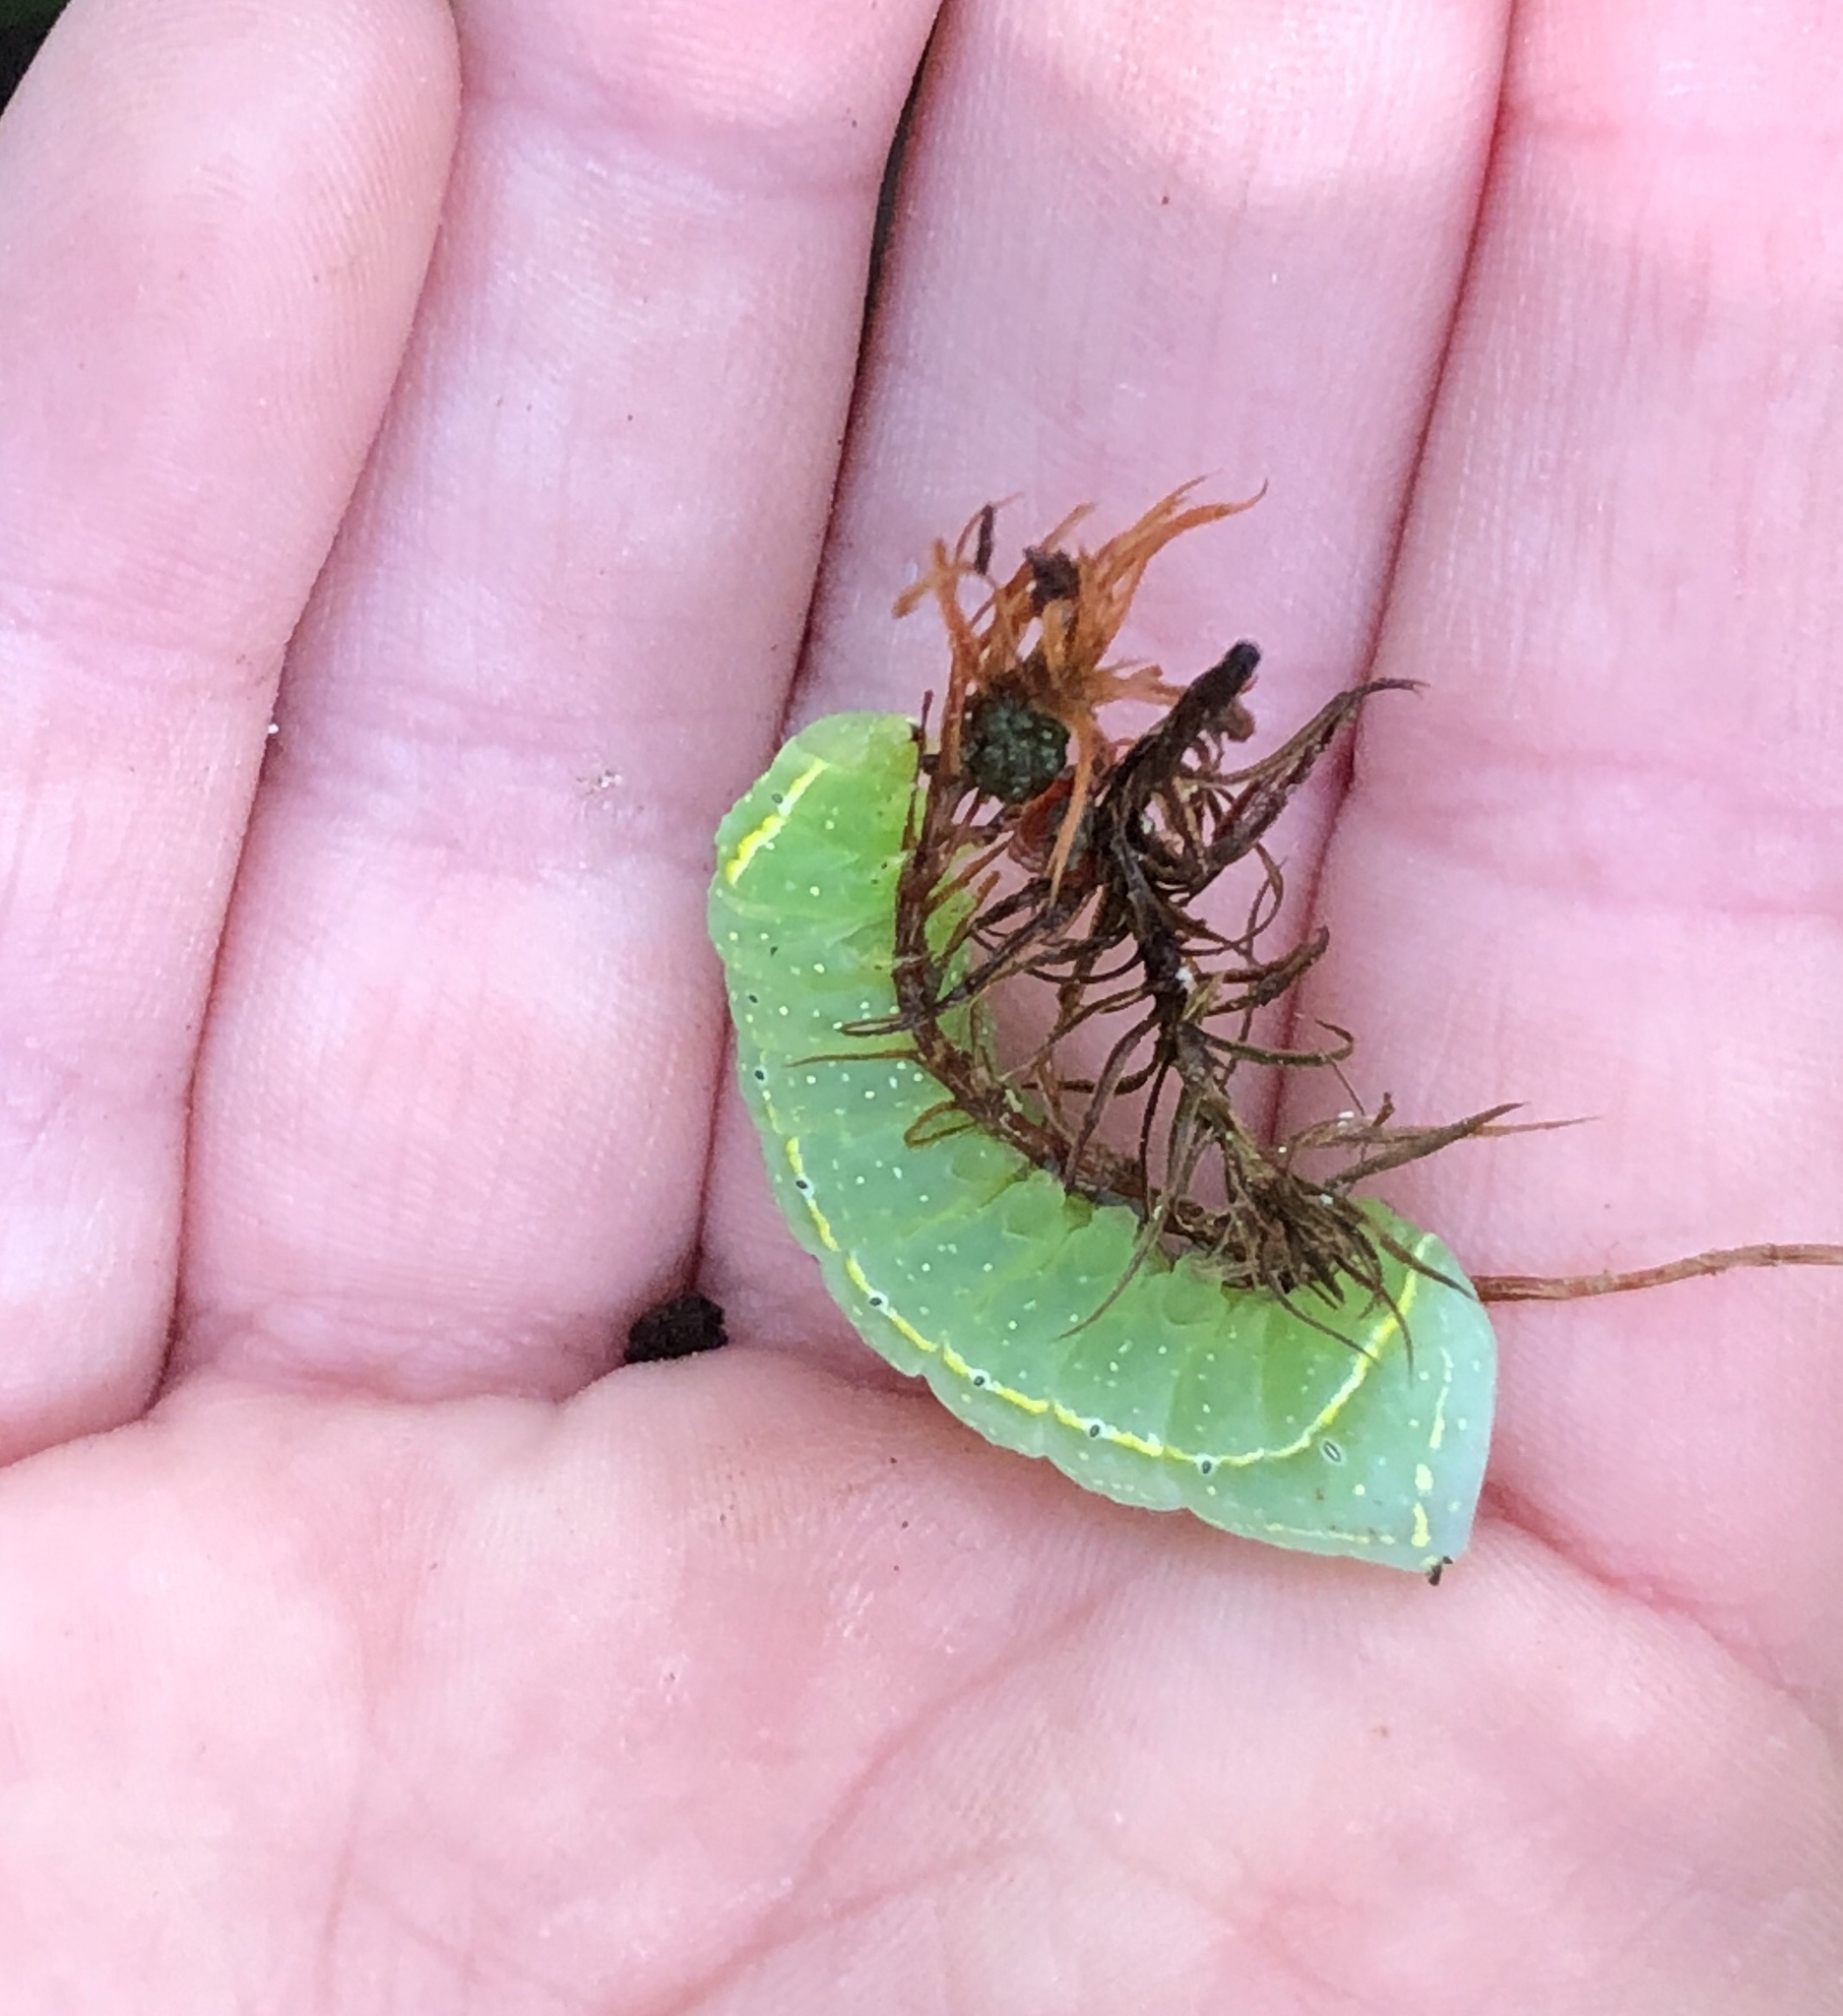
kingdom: Animalia
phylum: Arthropoda
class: Insecta
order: Lepidoptera
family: Noctuidae
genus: Amphipyra
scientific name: Amphipyra pyramidoides
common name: American copper underwing
